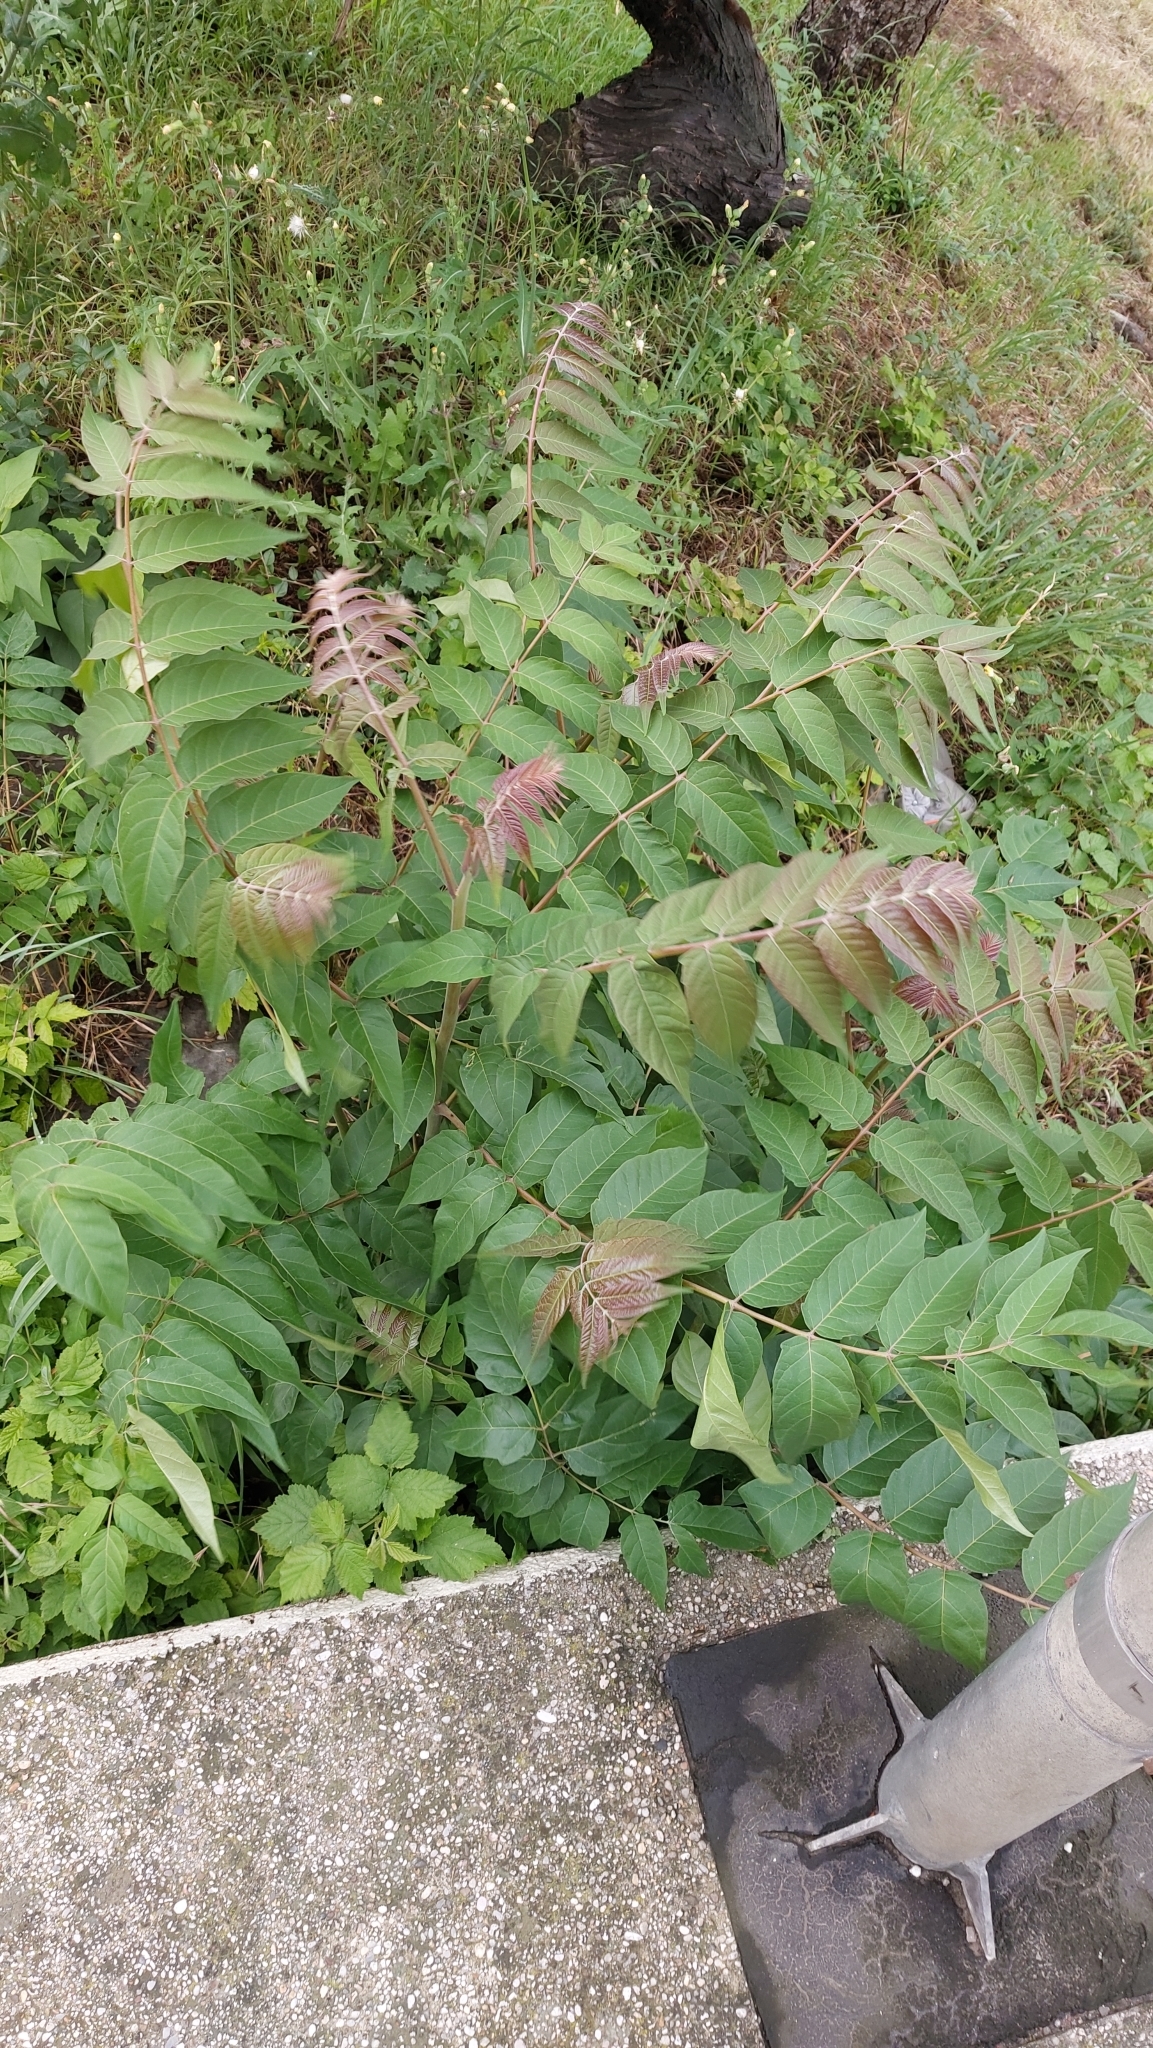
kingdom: Plantae
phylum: Tracheophyta
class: Magnoliopsida
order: Sapindales
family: Simaroubaceae
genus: Ailanthus
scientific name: Ailanthus altissima
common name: Tree-of-heaven
